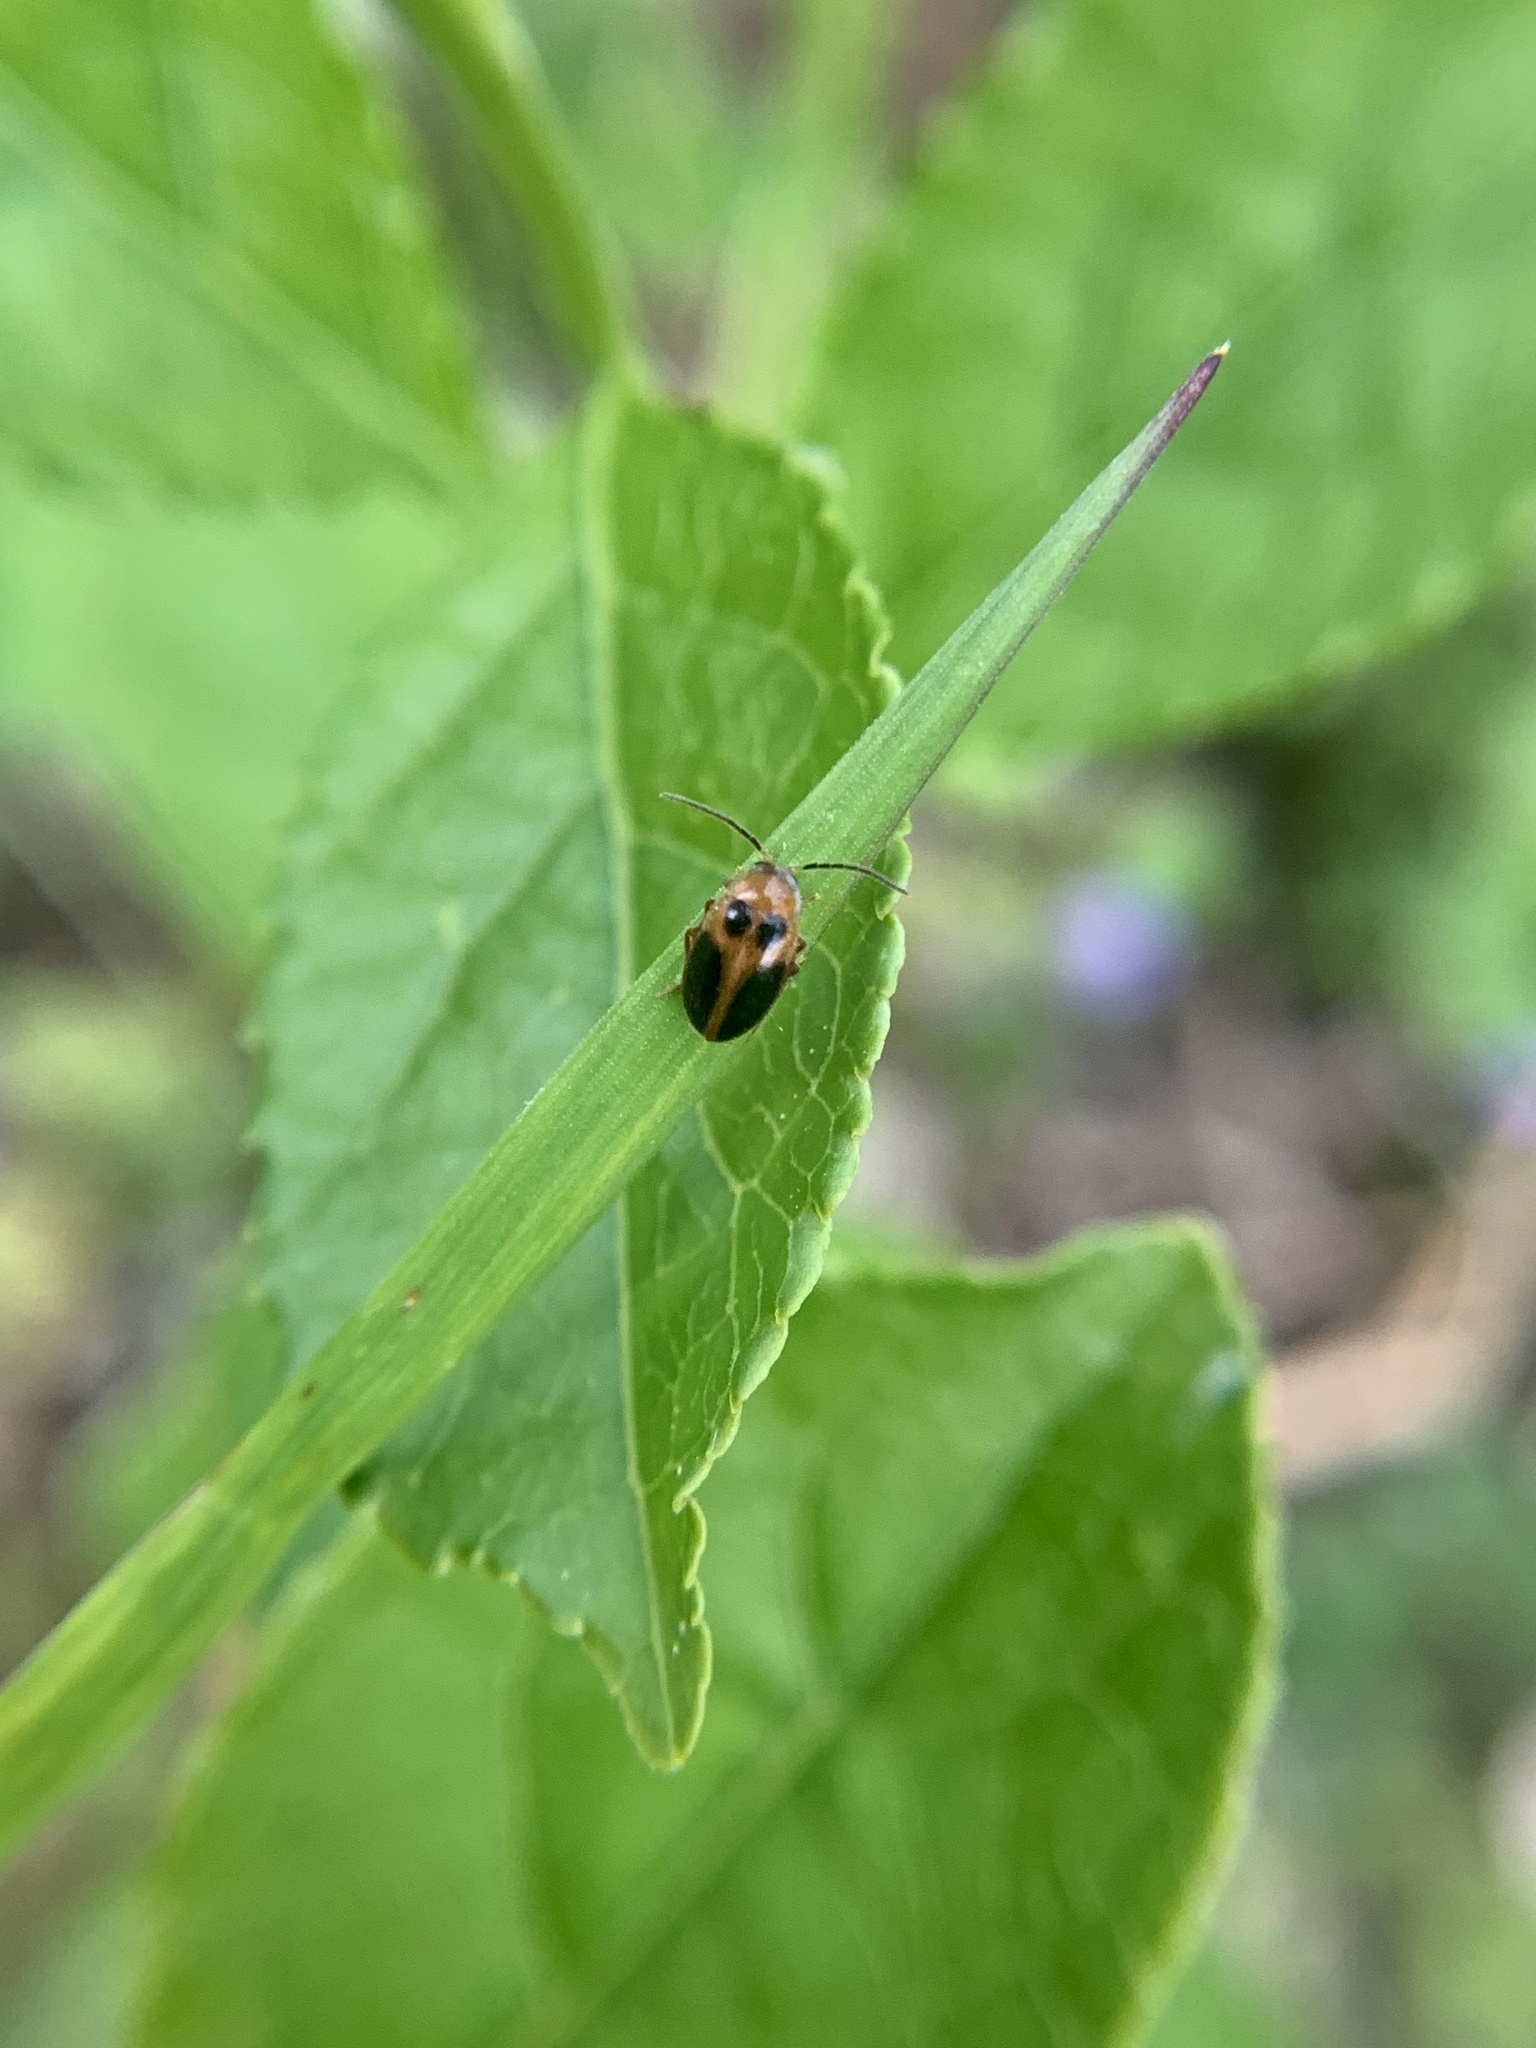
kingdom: Animalia
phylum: Arthropoda
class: Insecta
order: Coleoptera
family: Scirtidae
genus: Sacodes
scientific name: Sacodes pulchella
